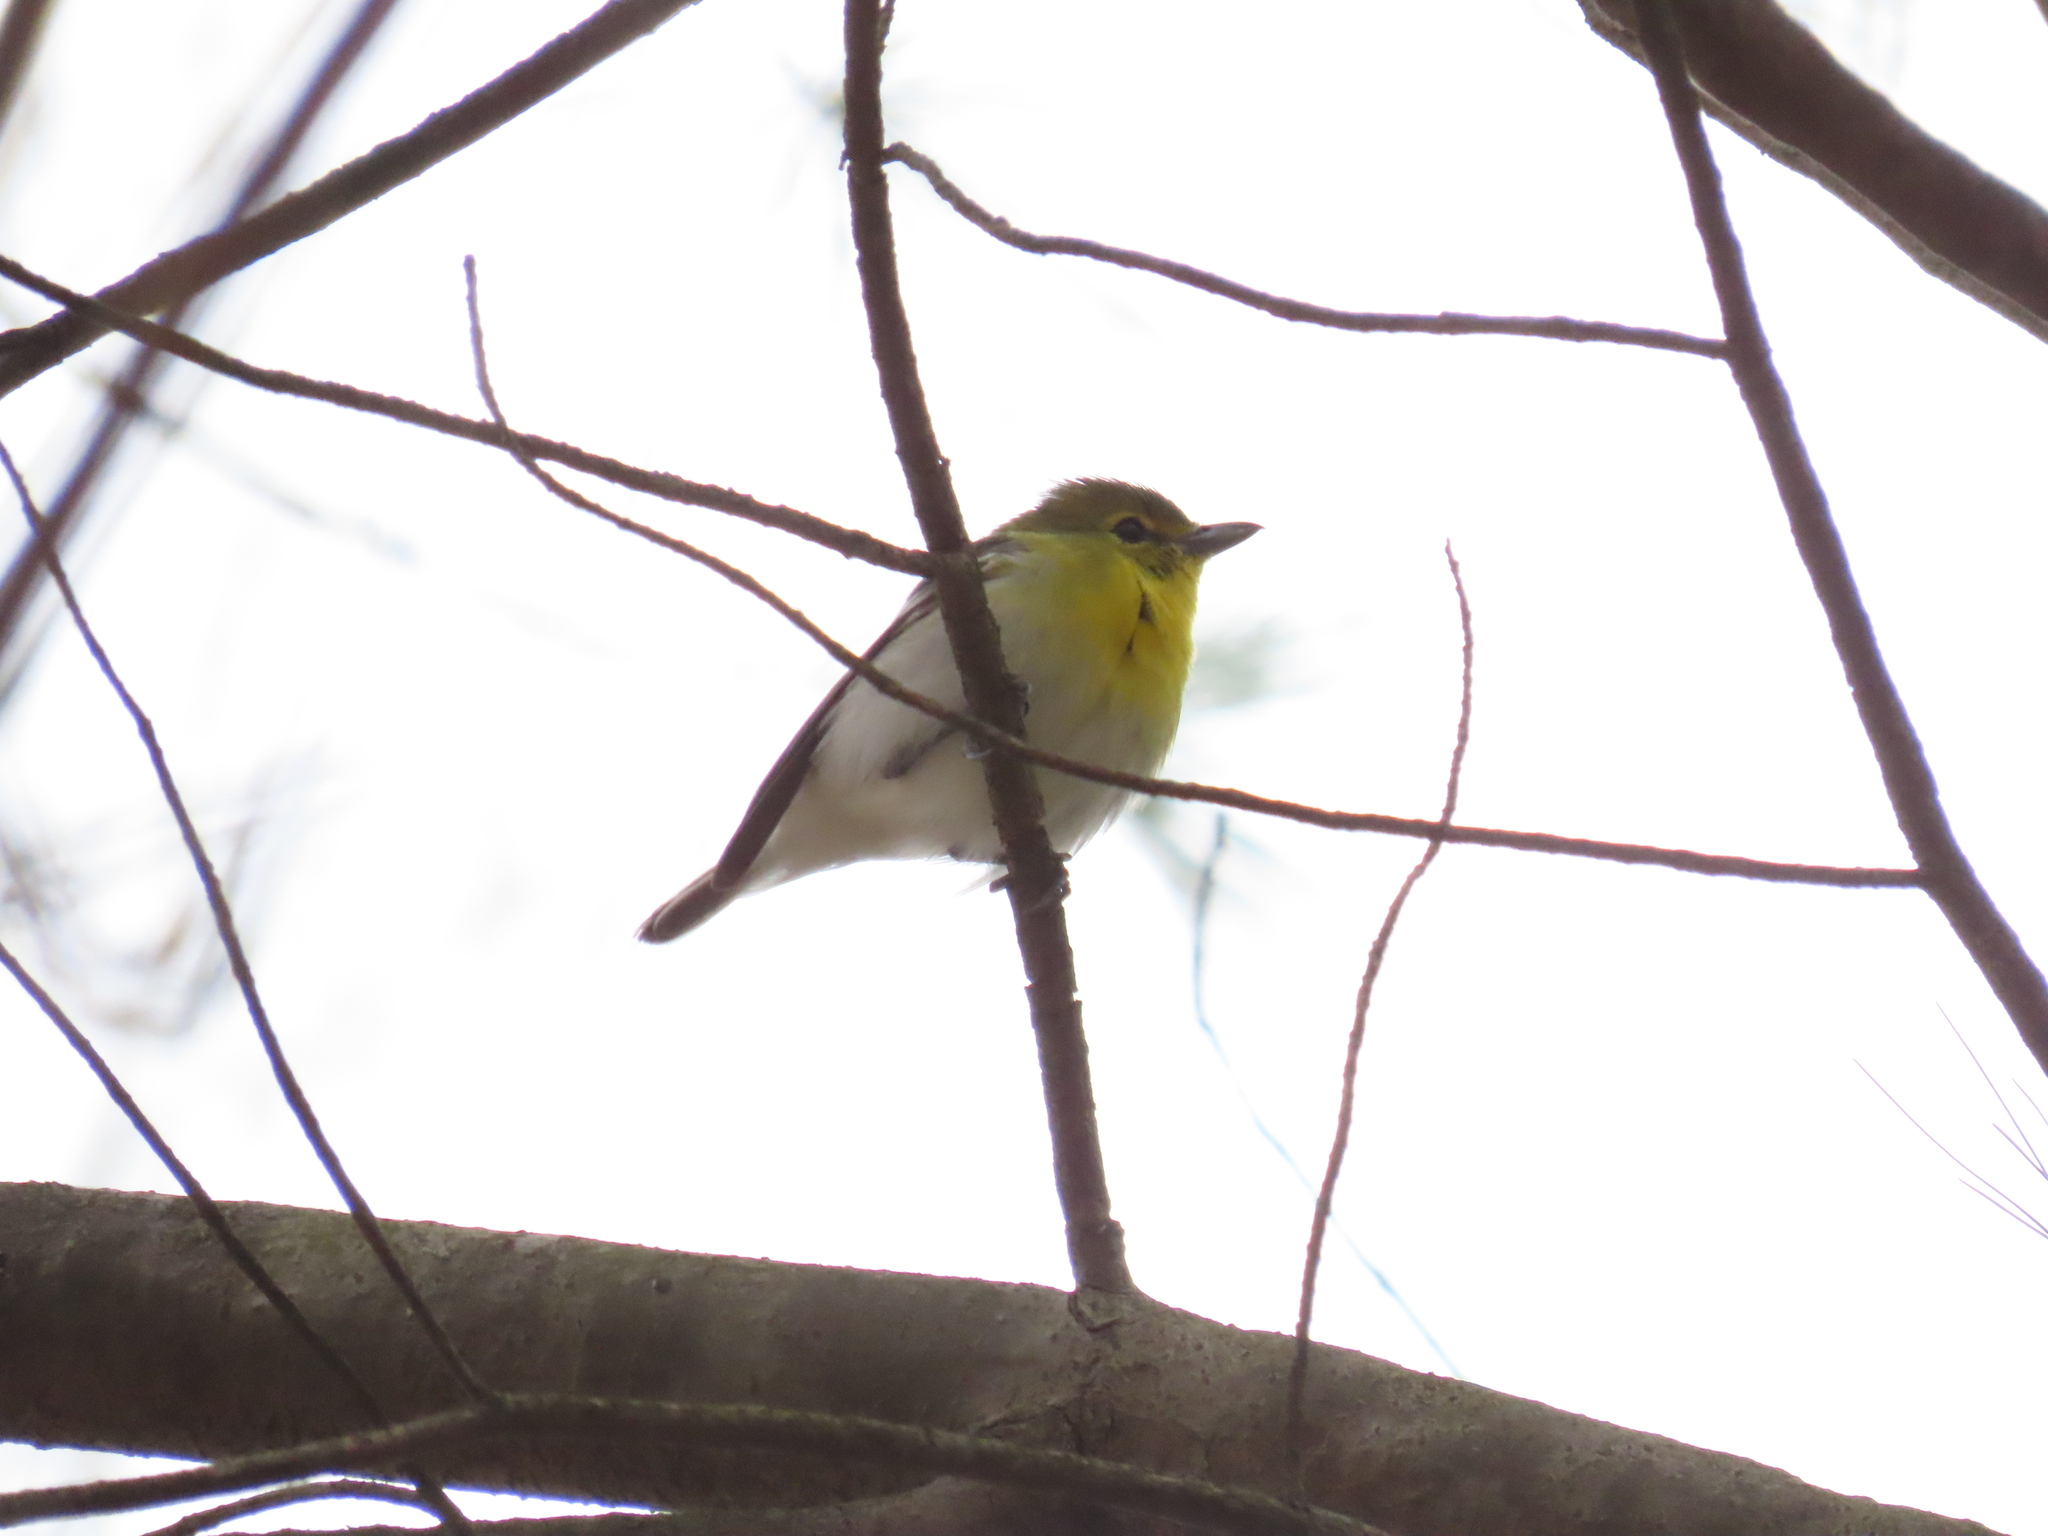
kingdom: Animalia
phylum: Chordata
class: Aves
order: Passeriformes
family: Vireonidae
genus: Vireo
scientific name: Vireo flavifrons
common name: Yellow-throated vireo
